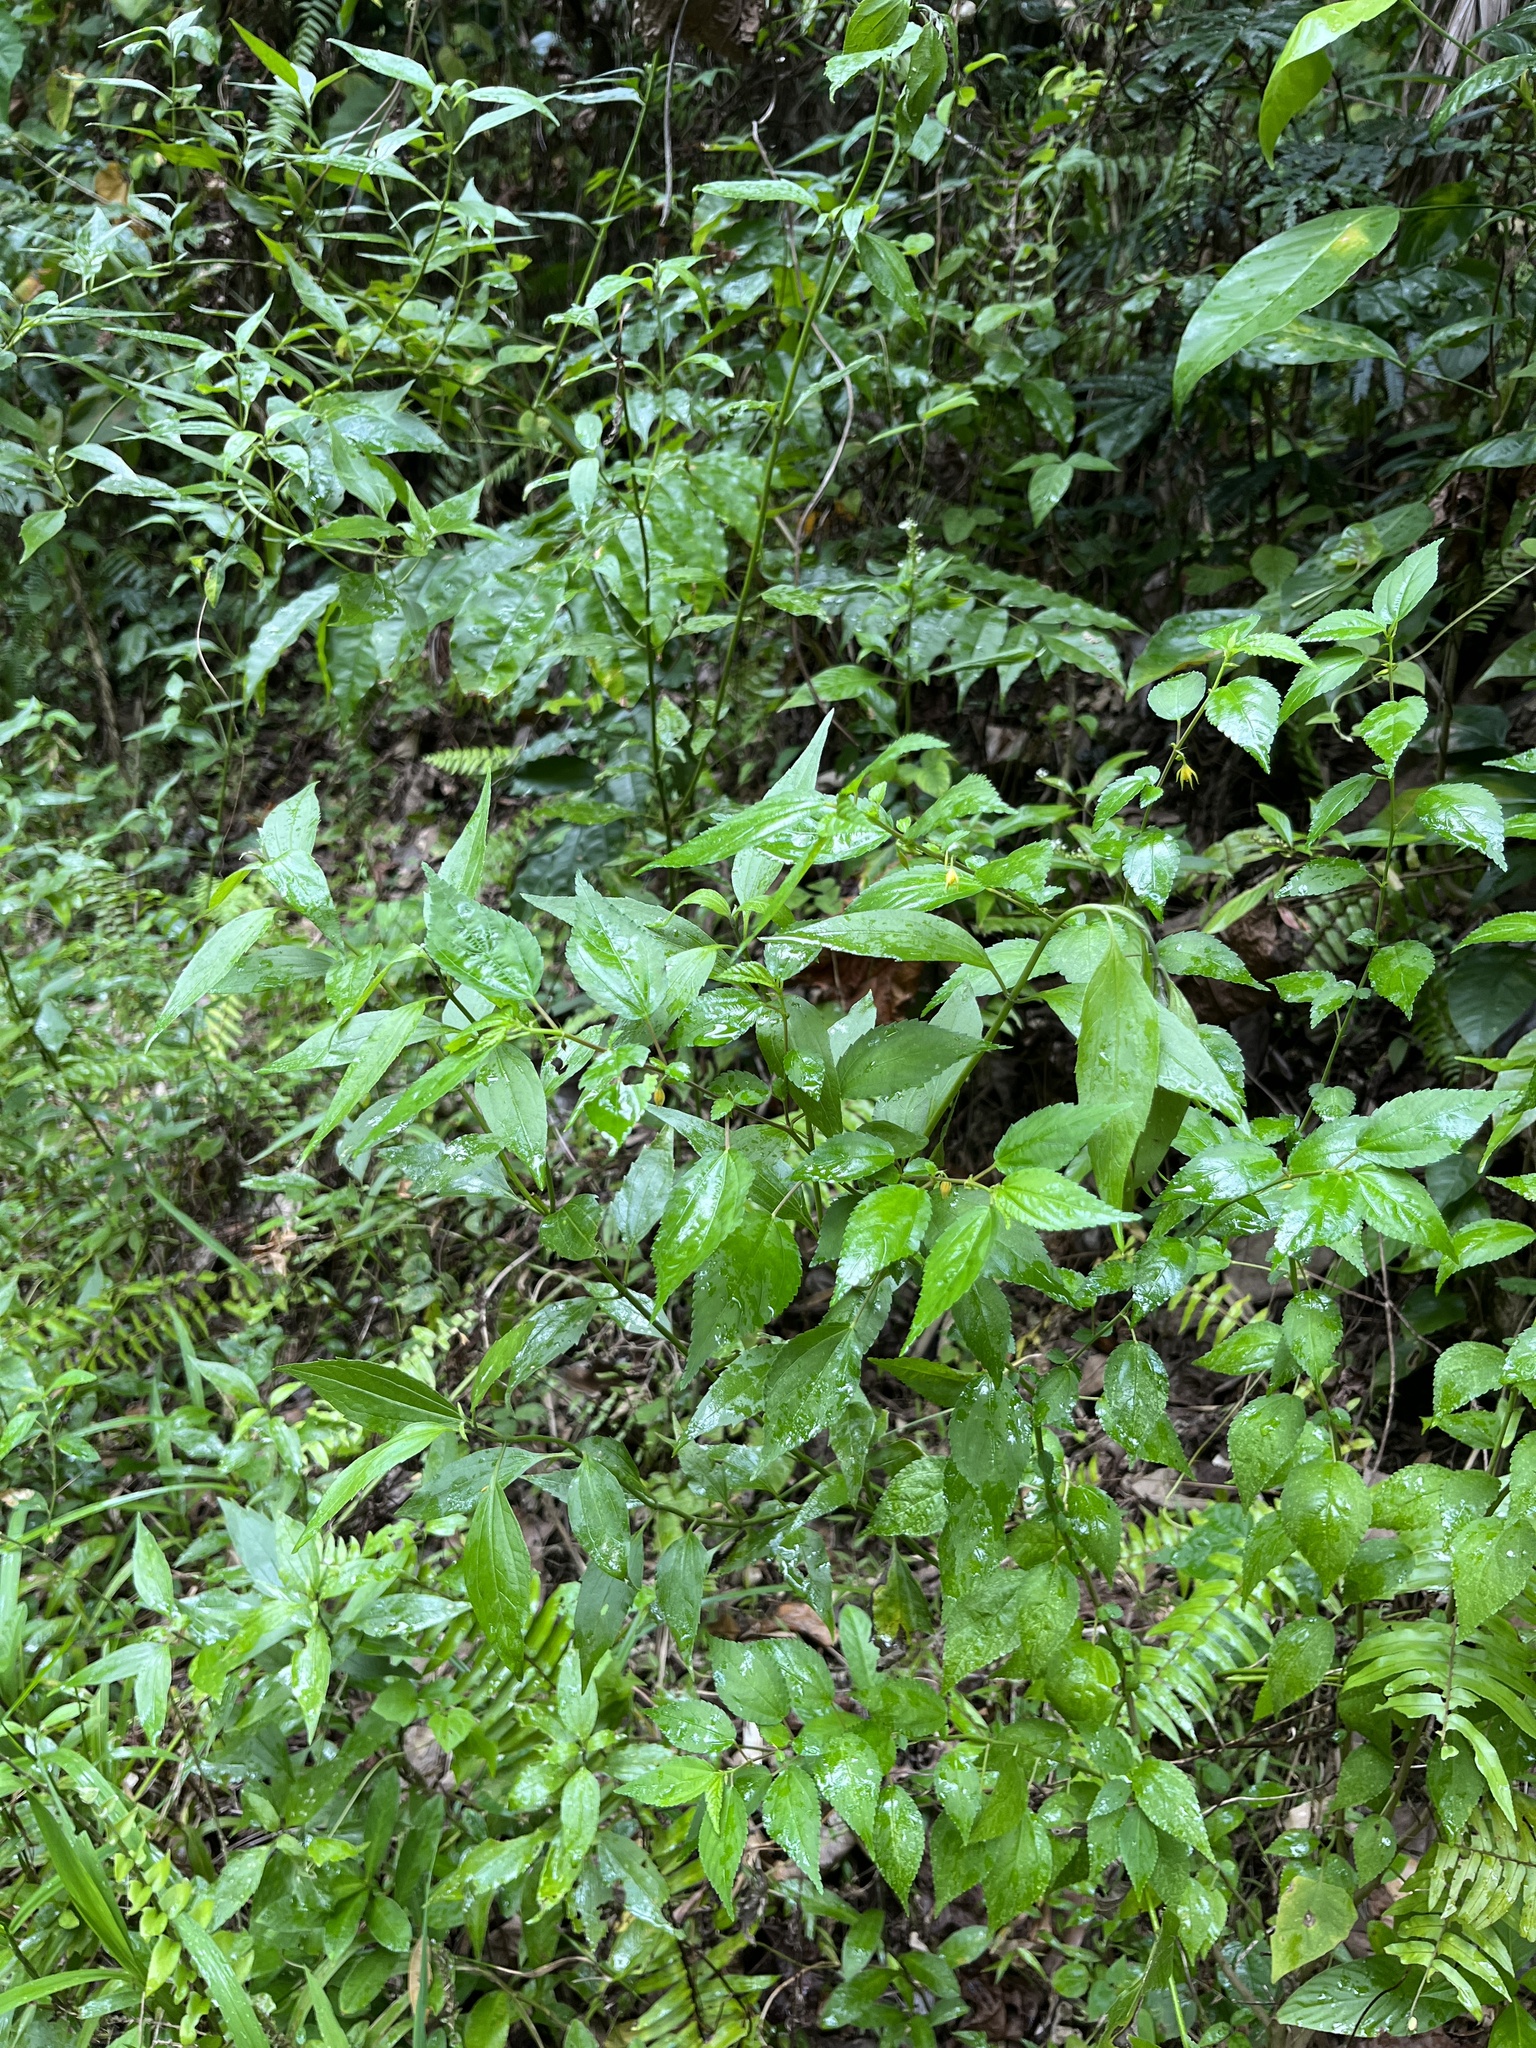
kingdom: Plantae
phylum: Tracheophyta
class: Magnoliopsida
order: Malvales
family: Malvaceae
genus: Corchorus
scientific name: Corchorus siliquosus
